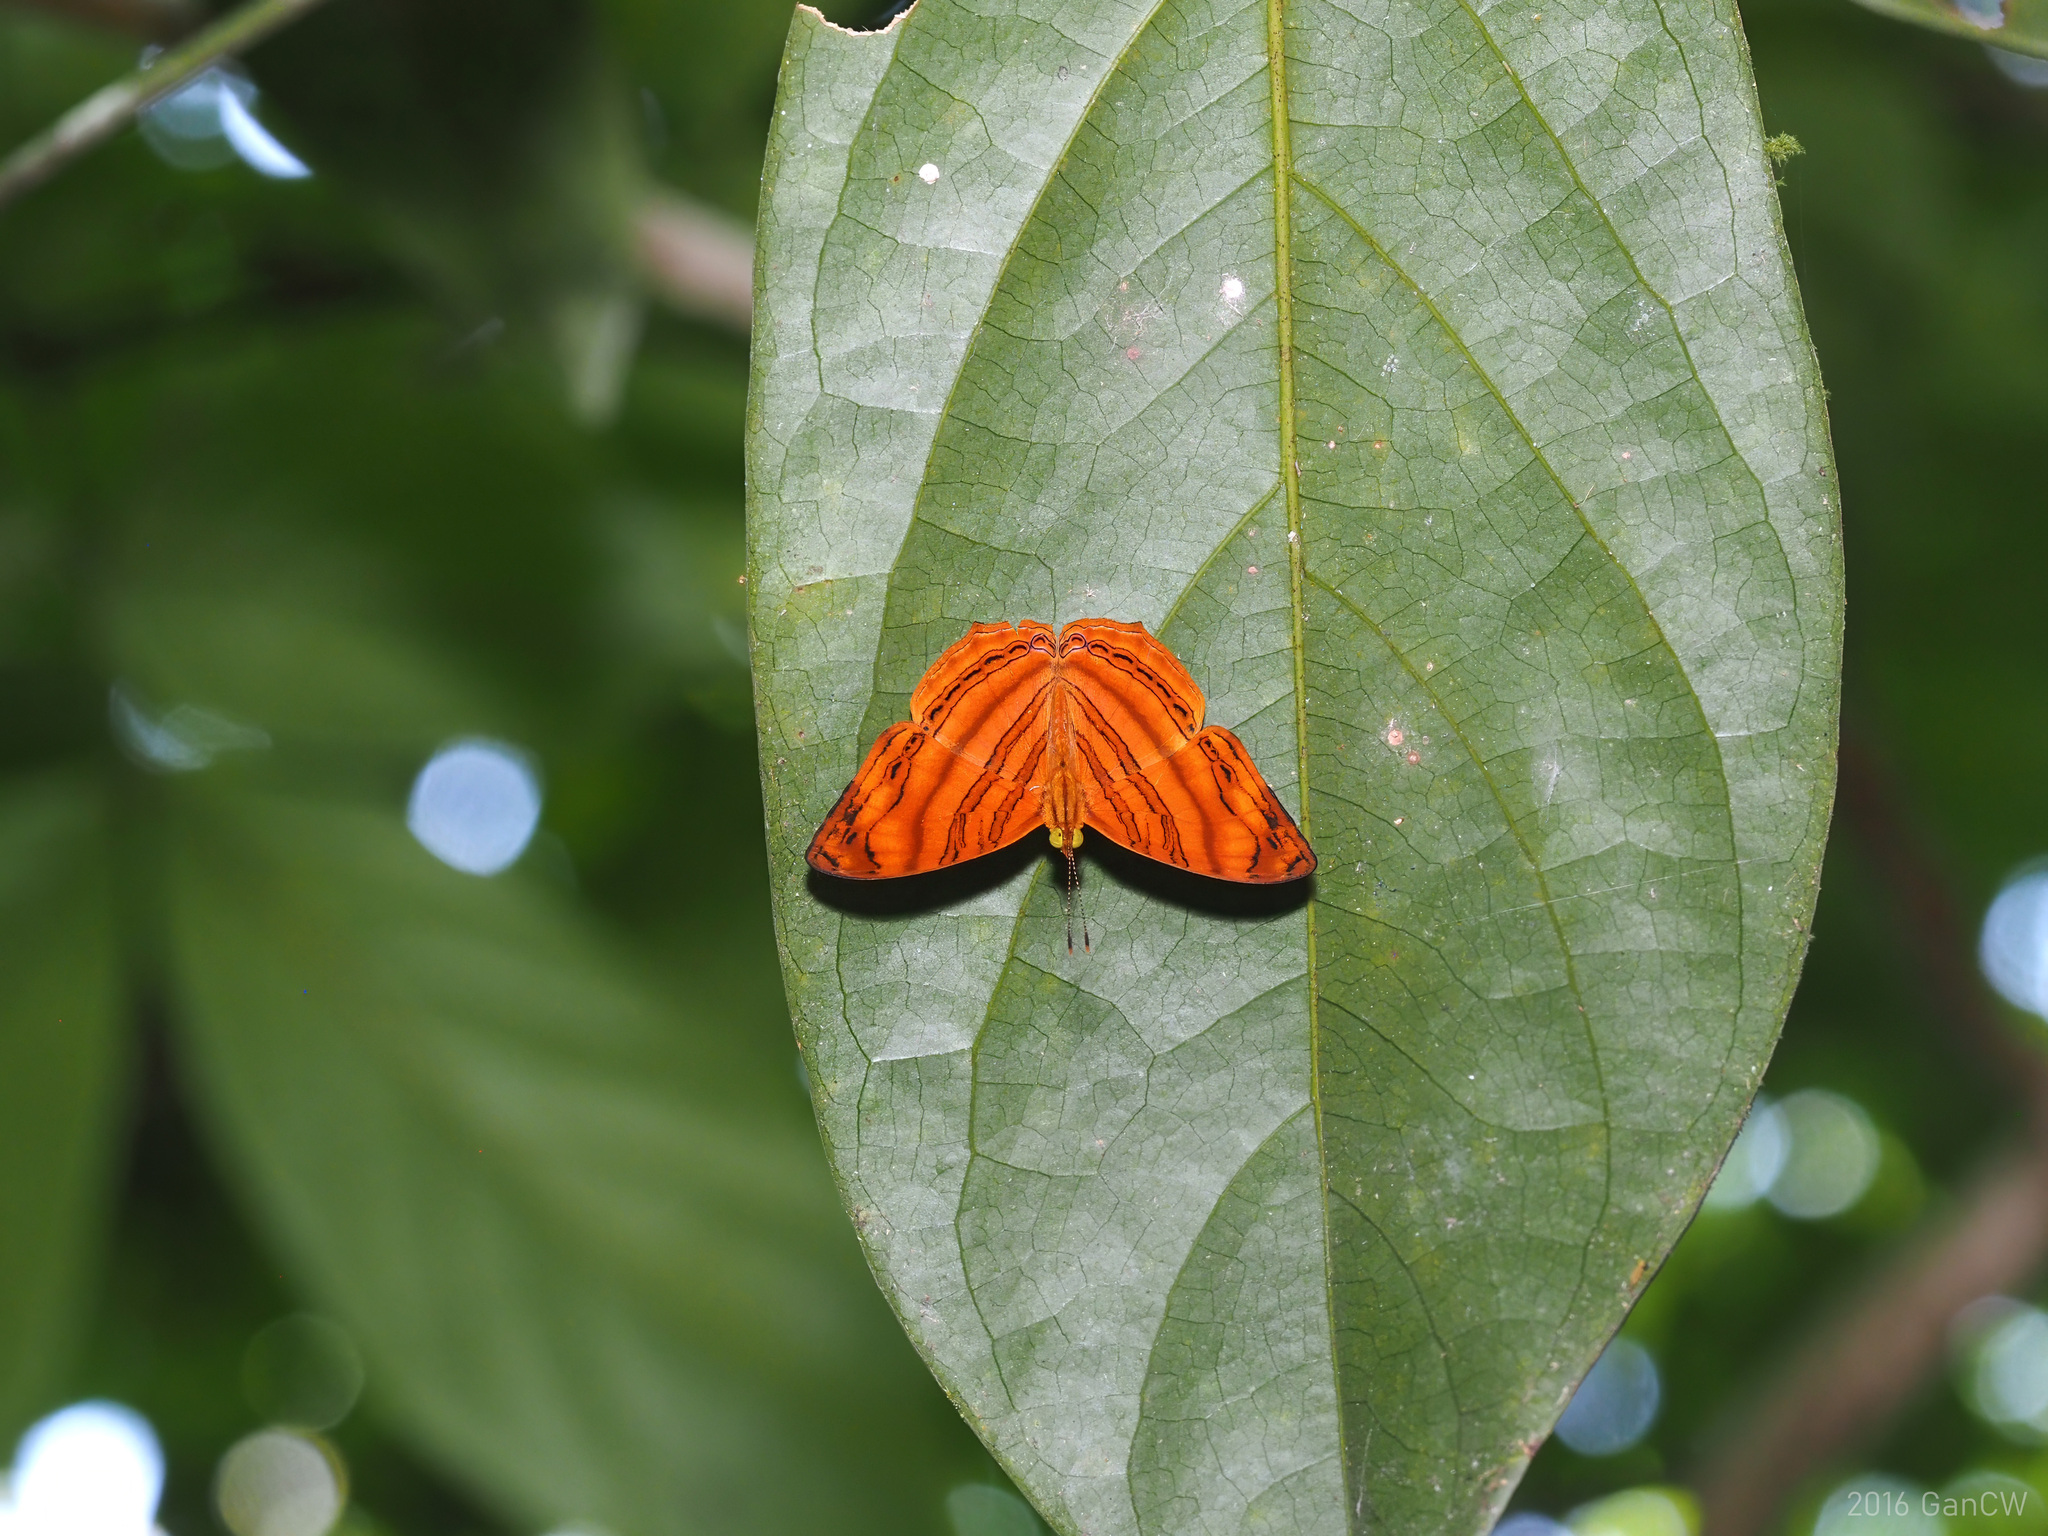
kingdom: Animalia
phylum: Arthropoda
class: Insecta
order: Lepidoptera
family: Nymphalidae
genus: Chersonesia
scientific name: Chersonesia rahria
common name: Wavy maplet
